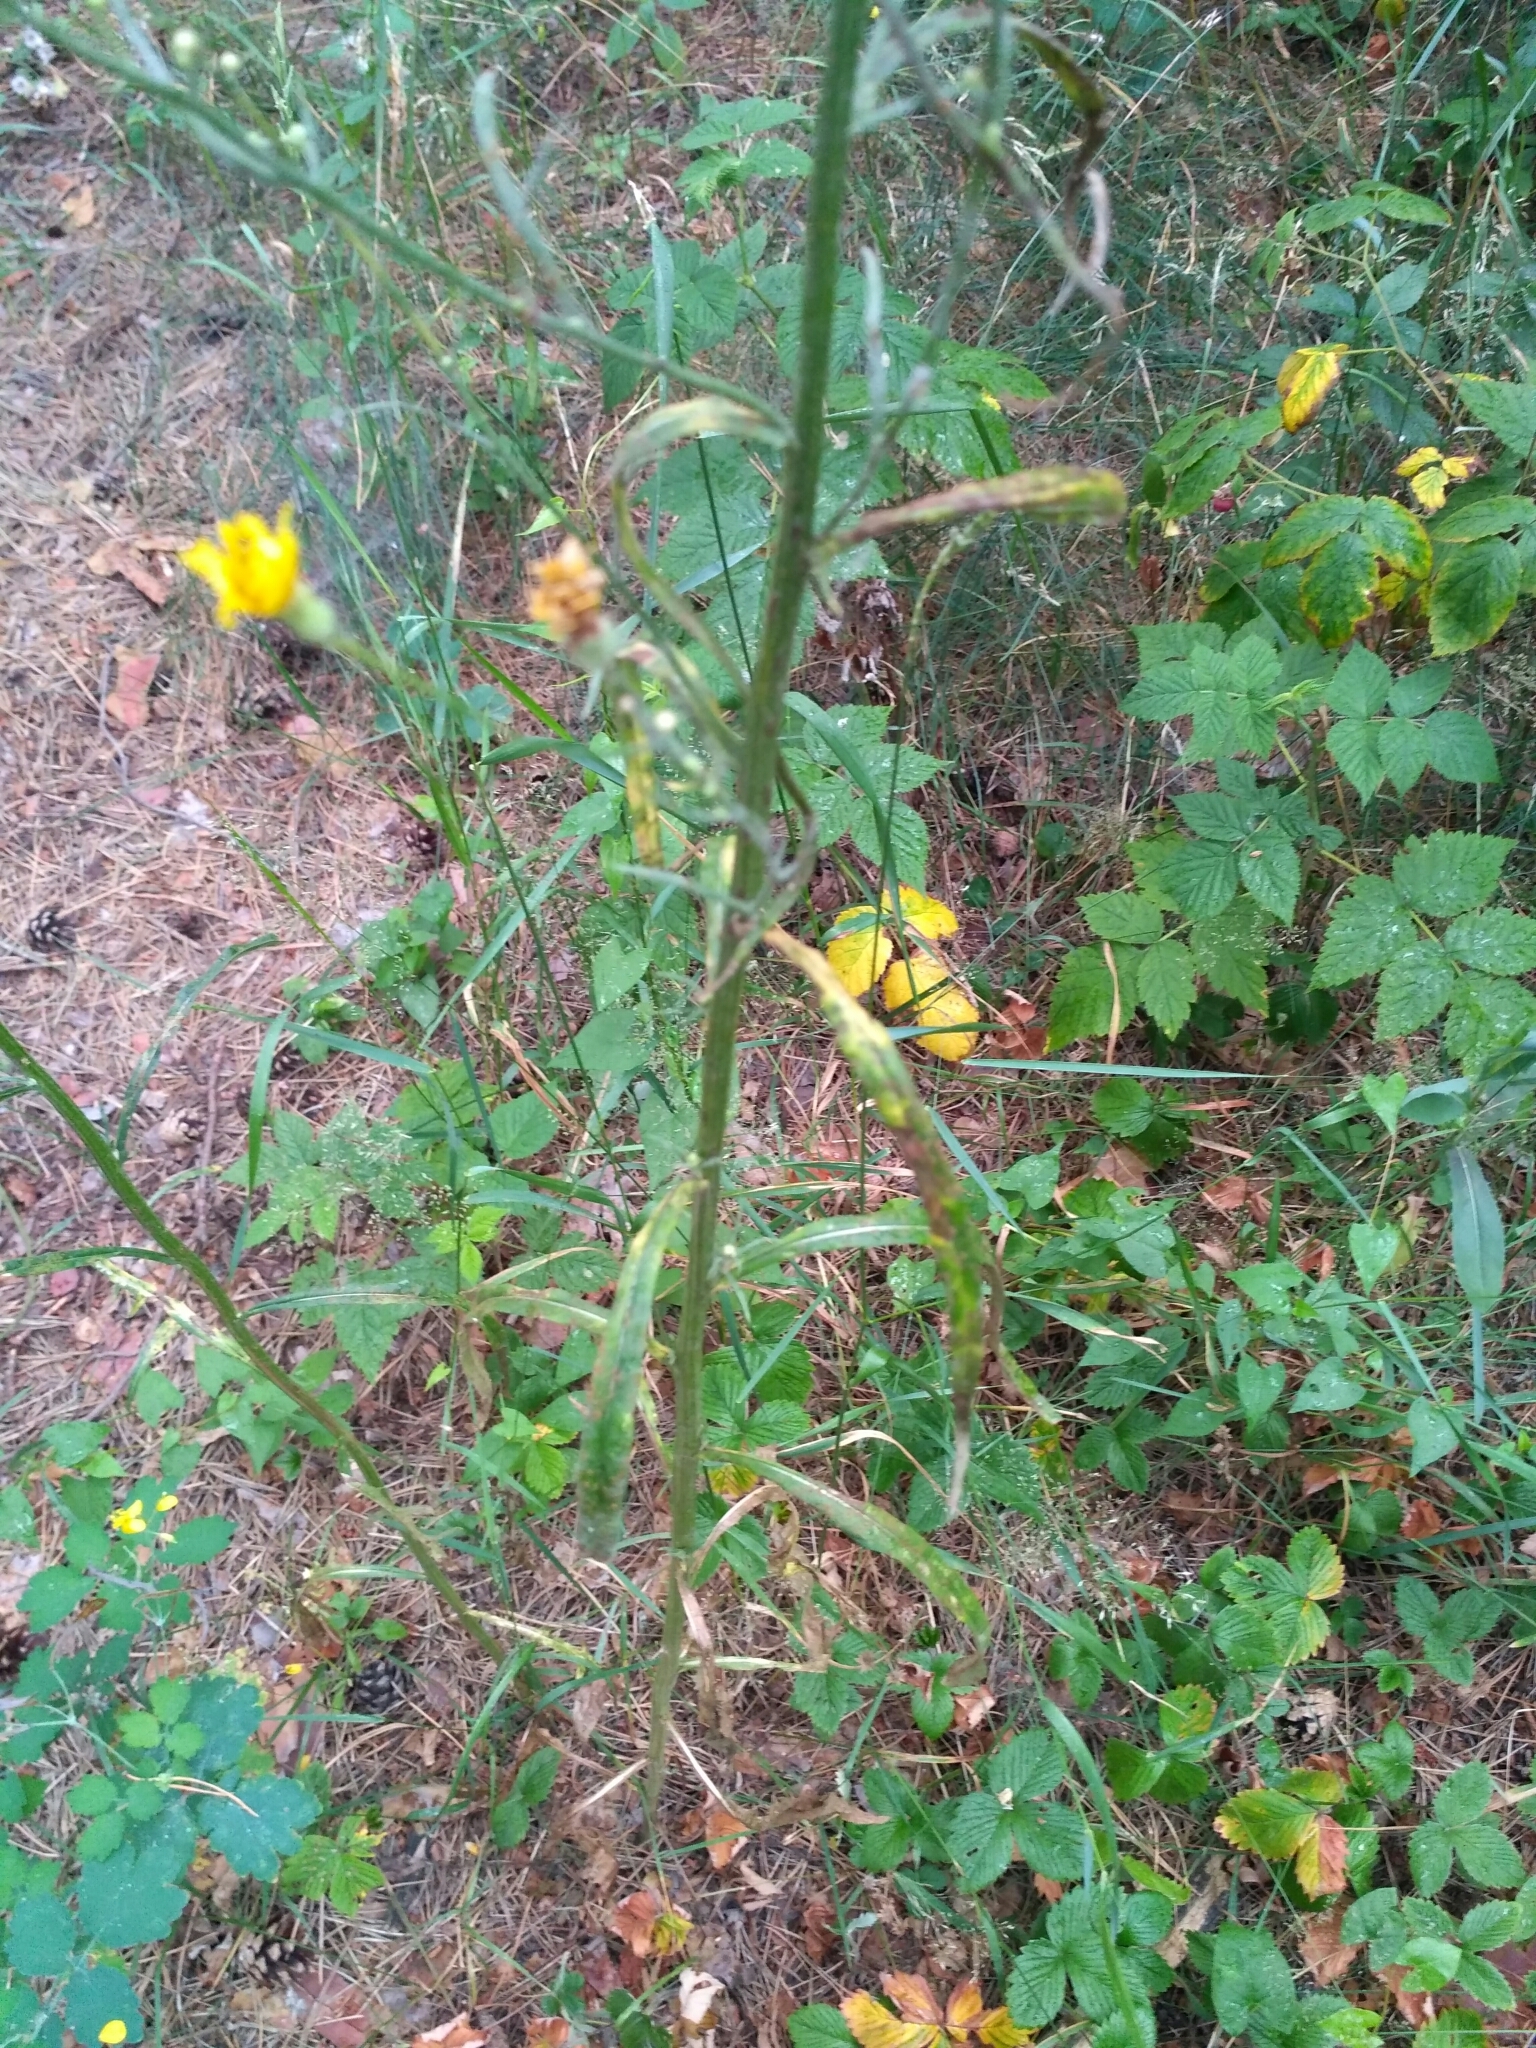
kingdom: Plantae
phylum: Tracheophyta
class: Magnoliopsida
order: Asterales
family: Asteraceae
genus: Crepis
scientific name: Crepis tectorum
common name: Narrow-leaved hawk's-beard
